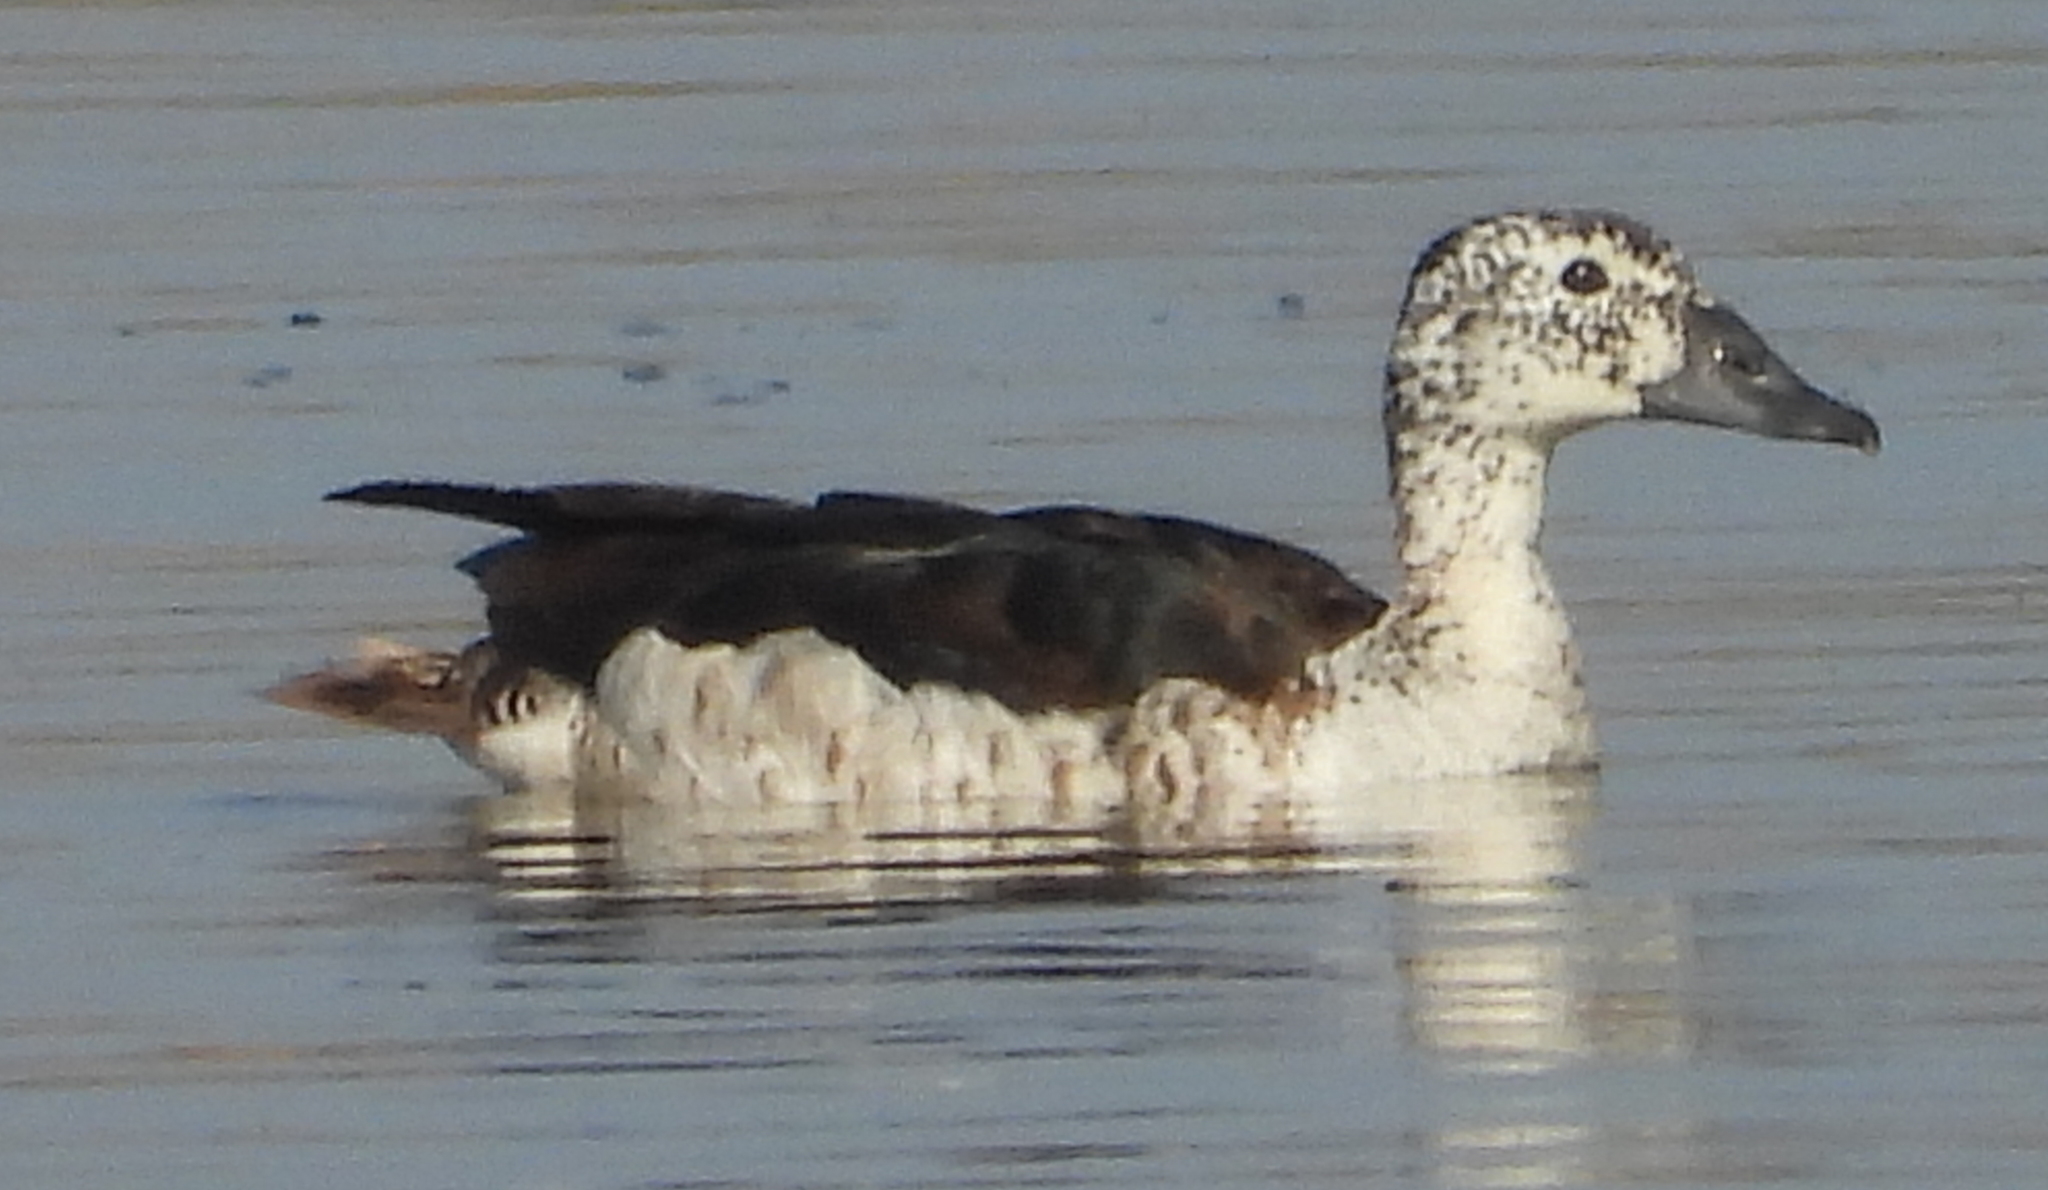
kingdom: Animalia
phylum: Chordata
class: Aves
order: Anseriformes
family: Anatidae
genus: Sarkidiornis
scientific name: Sarkidiornis melanotos
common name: Comb duck
